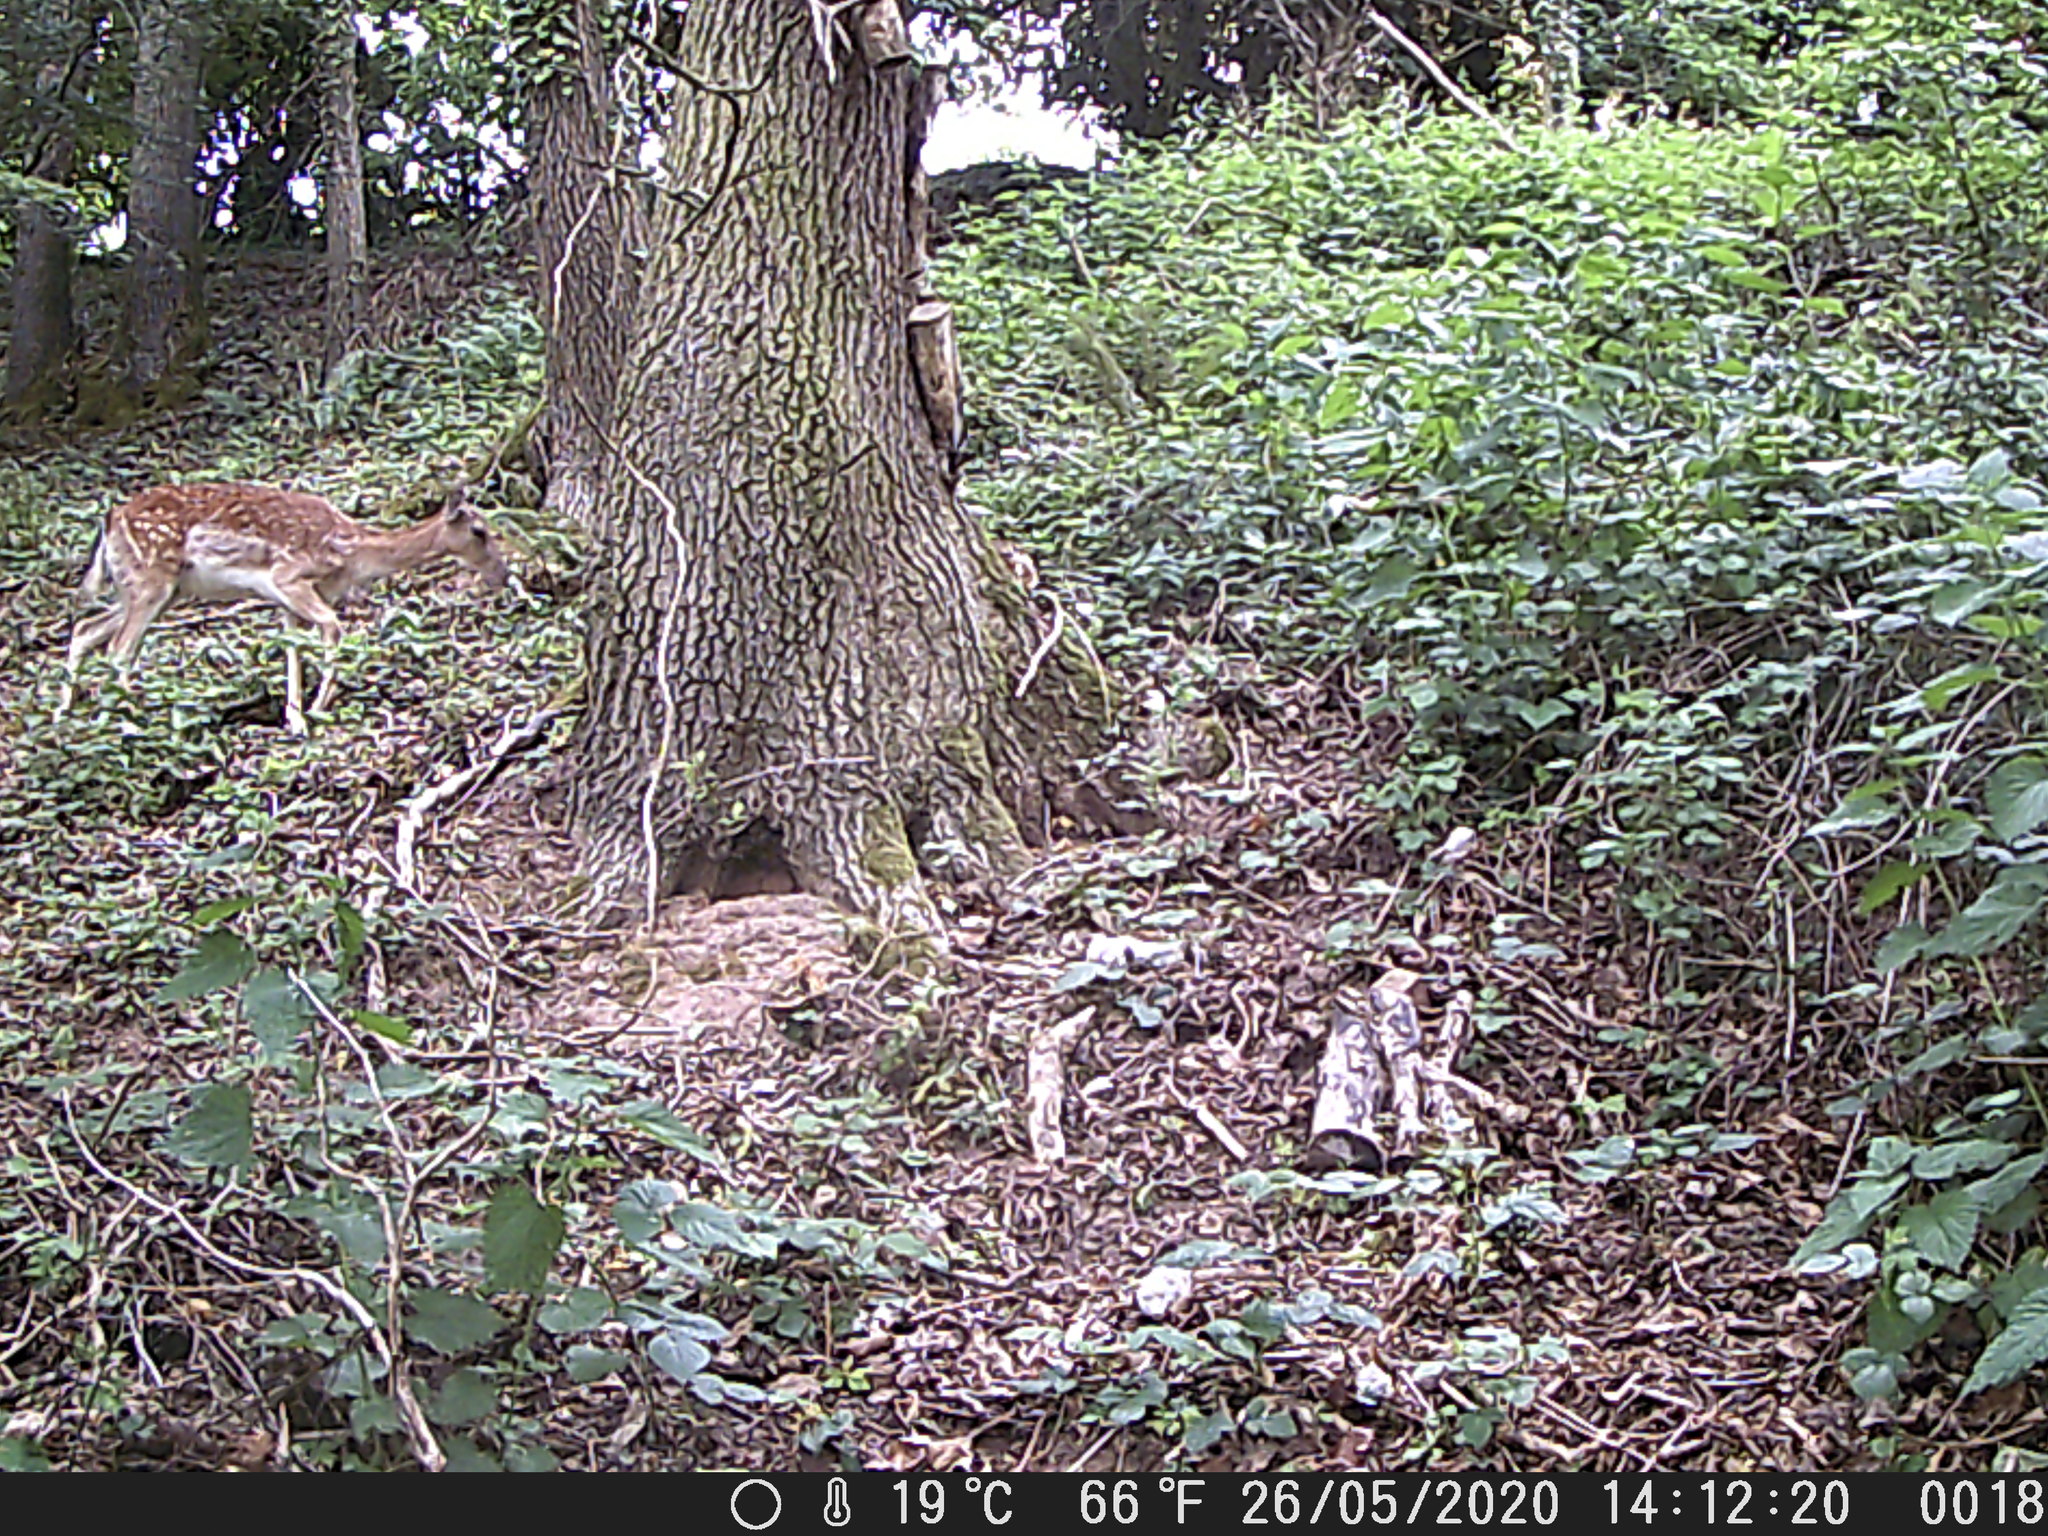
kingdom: Animalia
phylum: Chordata
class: Mammalia
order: Artiodactyla
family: Cervidae
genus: Dama
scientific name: Dama dama
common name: Fallow deer
